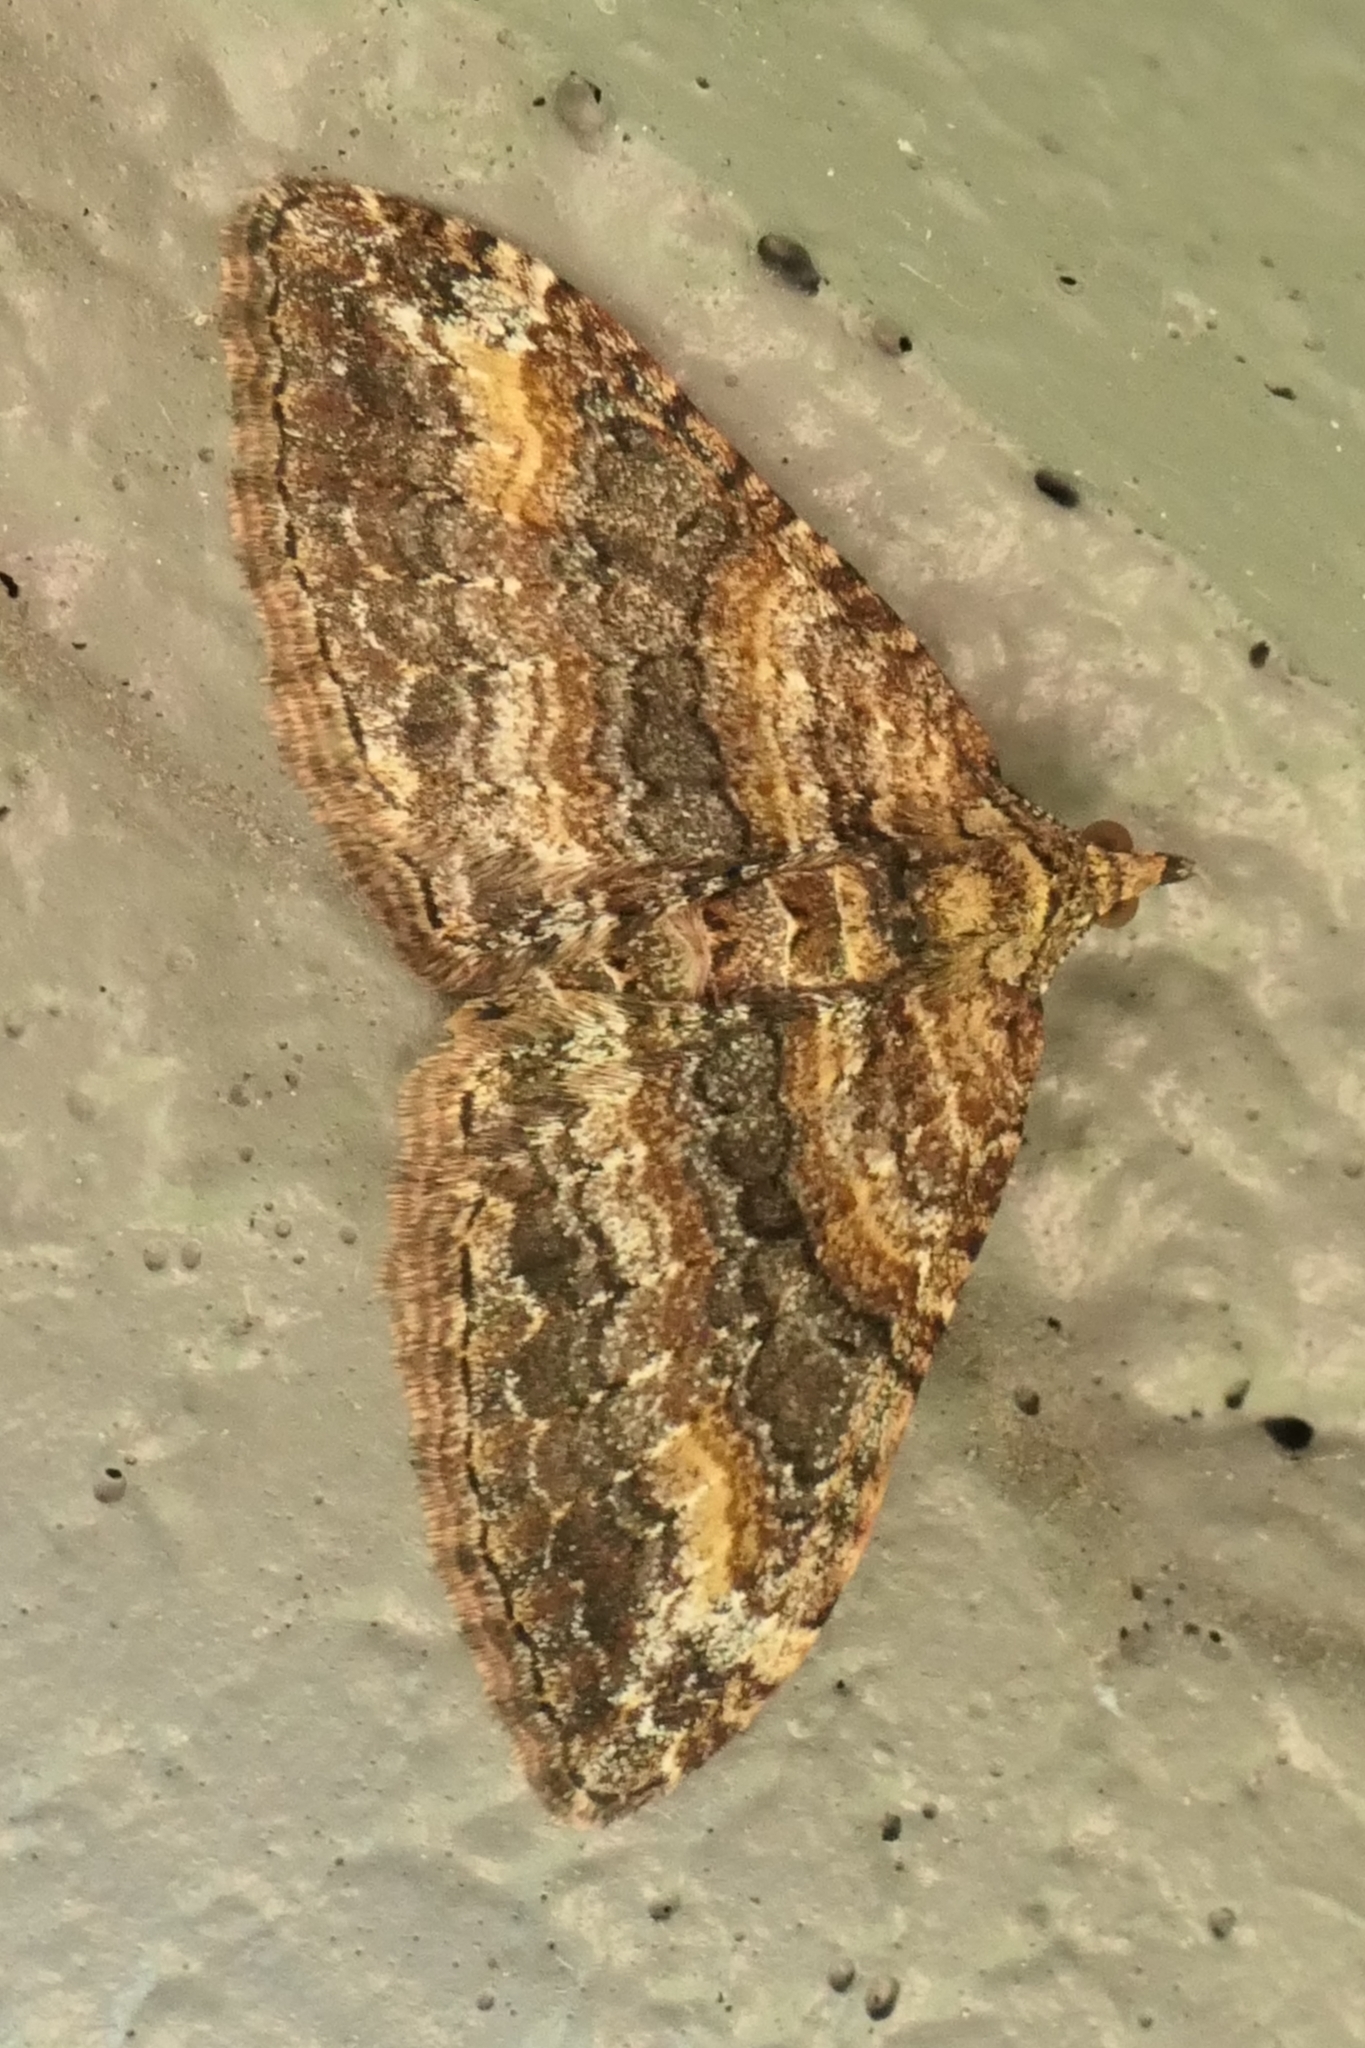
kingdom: Animalia
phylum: Arthropoda
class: Insecta
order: Lepidoptera
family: Geometridae
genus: Epyaxa
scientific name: Epyaxa lucidata
